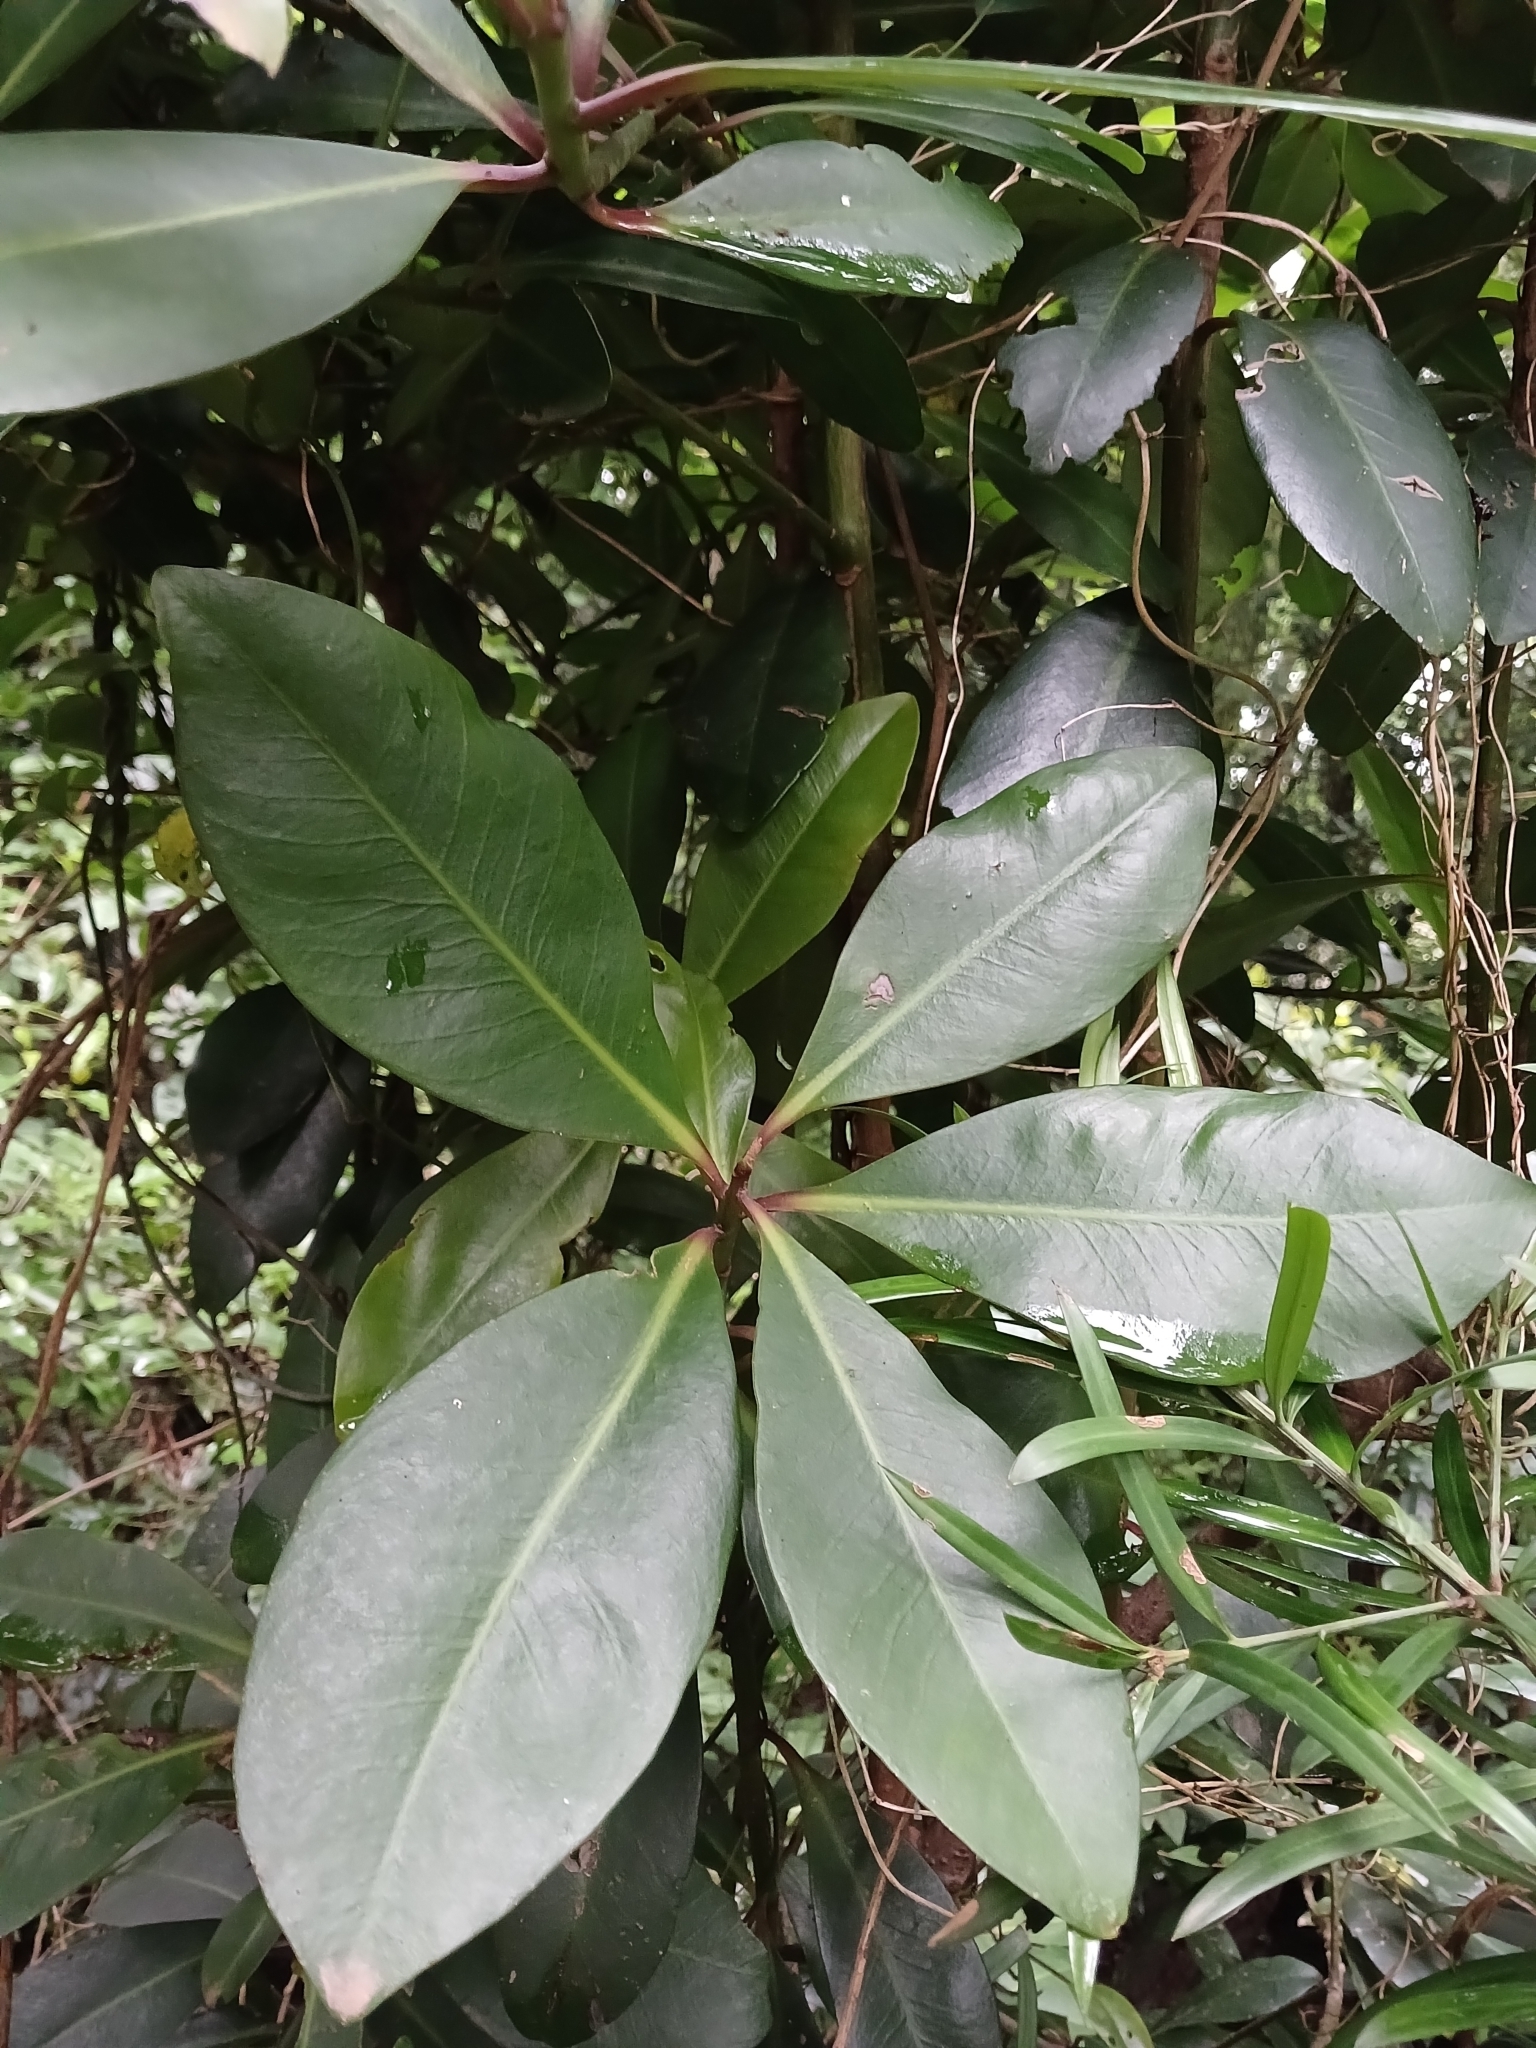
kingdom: Plantae
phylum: Tracheophyta
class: Magnoliopsida
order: Ericales
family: Primulaceae
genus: Myrsine
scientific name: Myrsine melanophloeos
